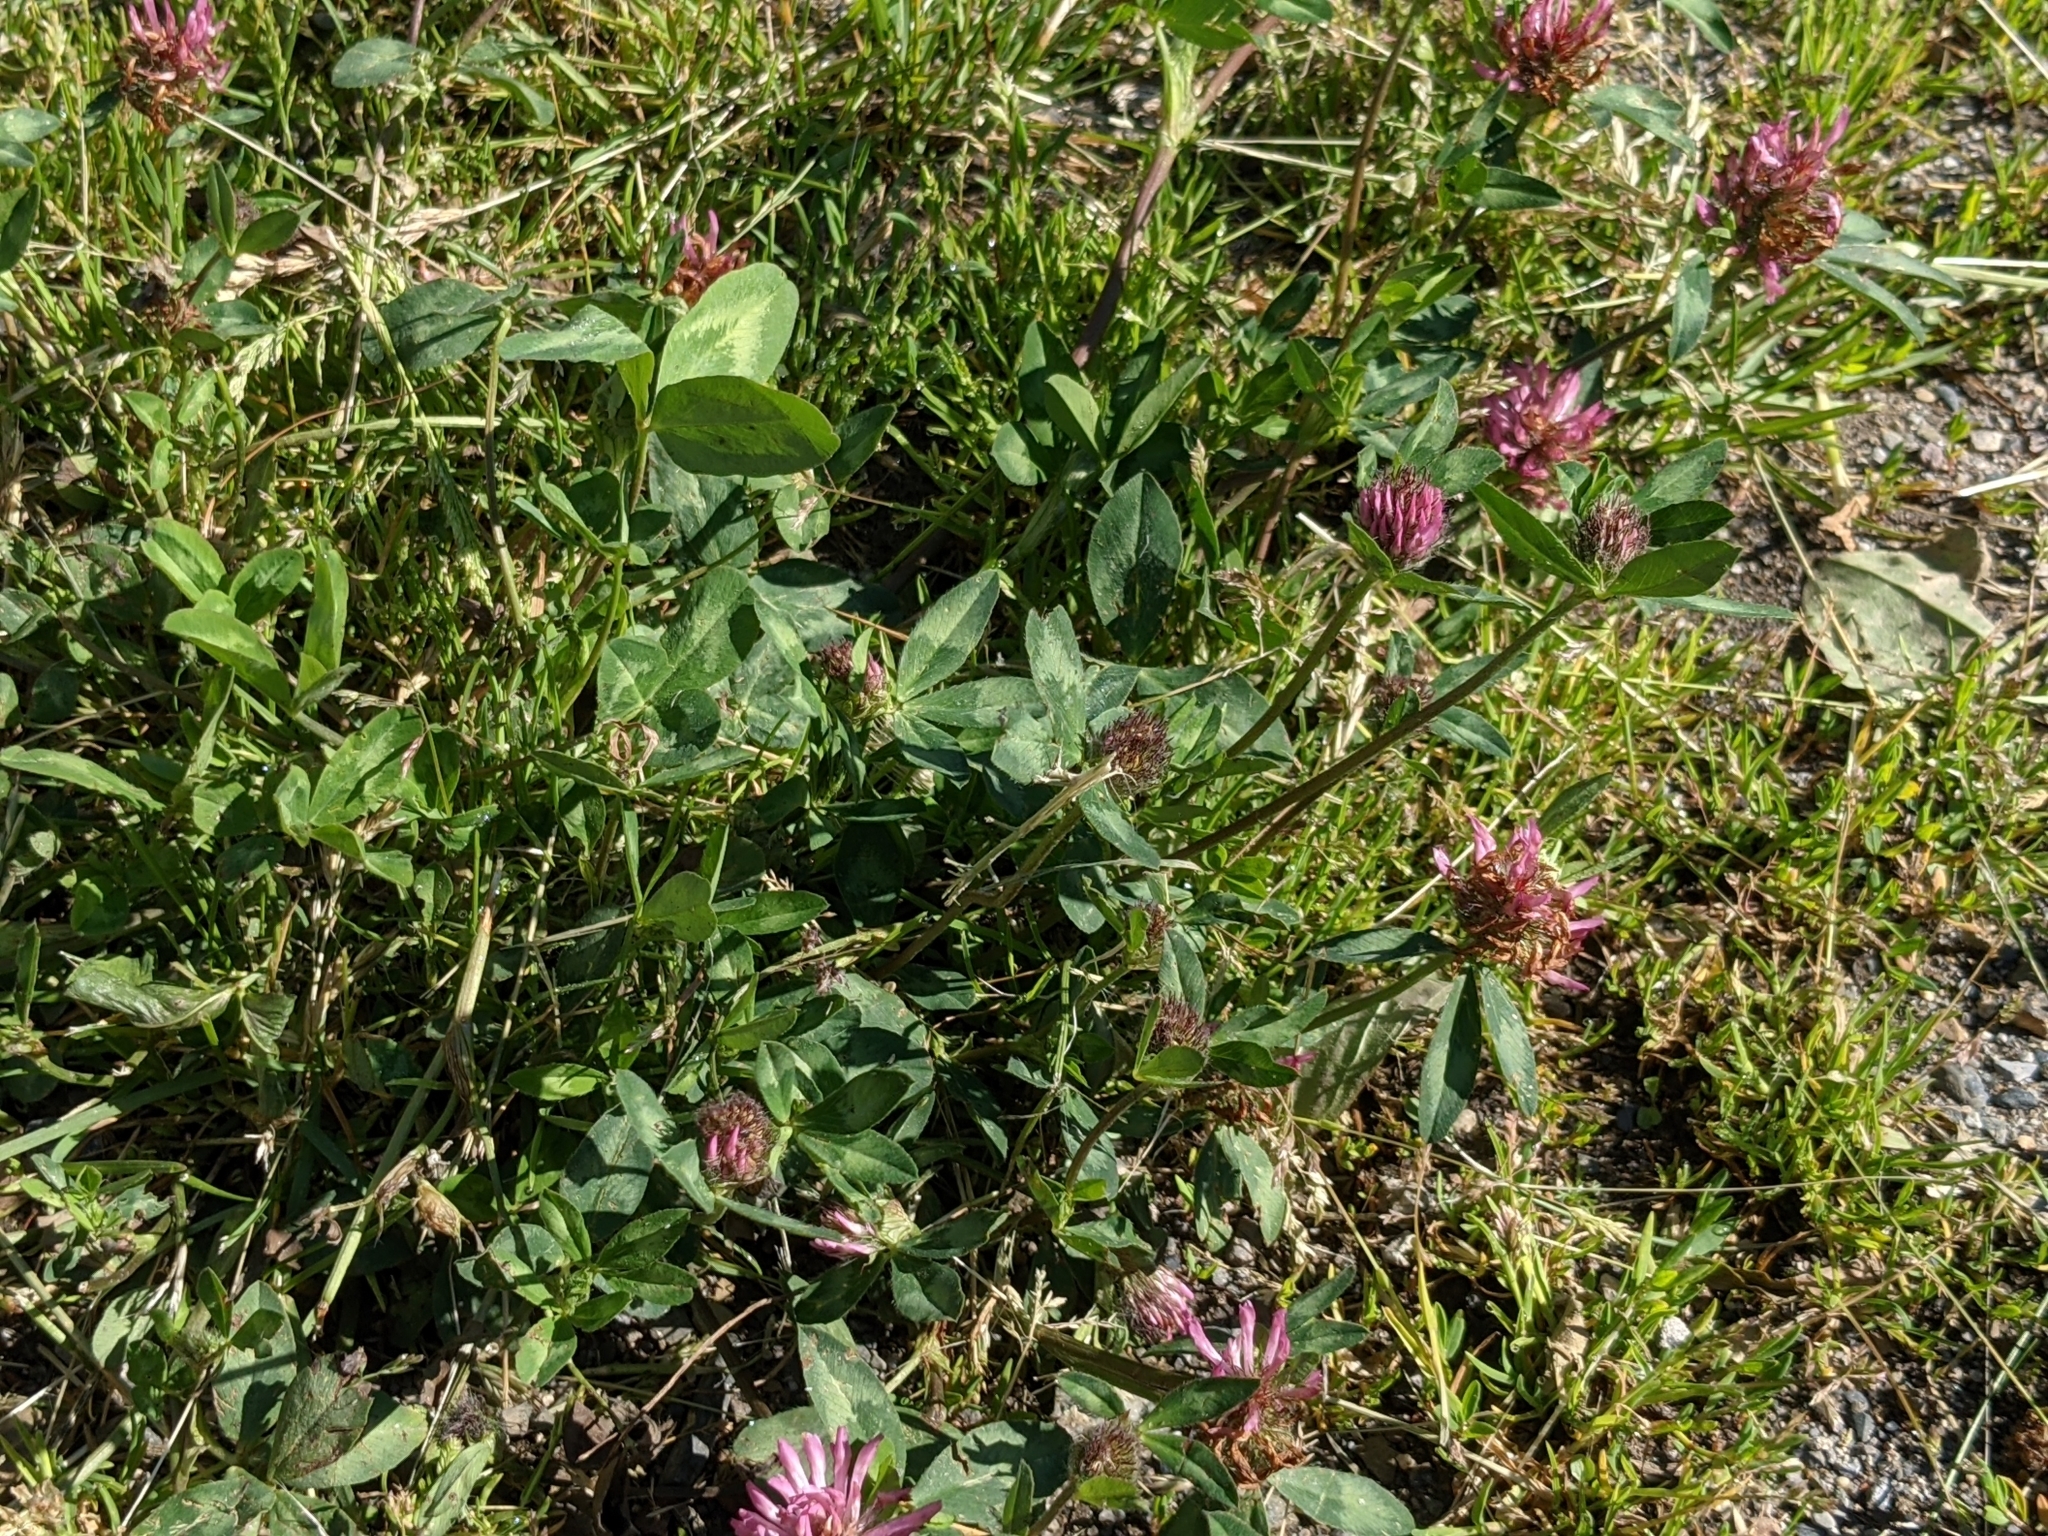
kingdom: Plantae
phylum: Tracheophyta
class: Magnoliopsida
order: Fabales
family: Fabaceae
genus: Trifolium
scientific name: Trifolium alpinum
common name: Alpine clover
